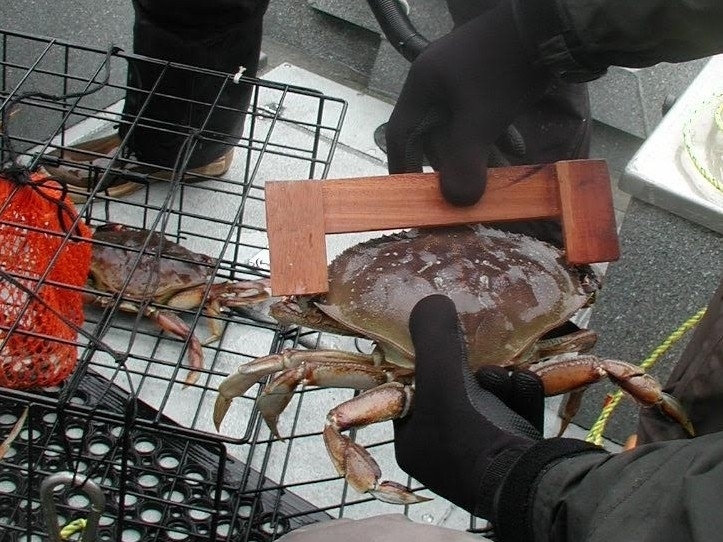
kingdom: Animalia
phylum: Arthropoda
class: Malacostraca
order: Decapoda
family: Cancridae
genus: Metacarcinus
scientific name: Metacarcinus magister
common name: Californian crab
